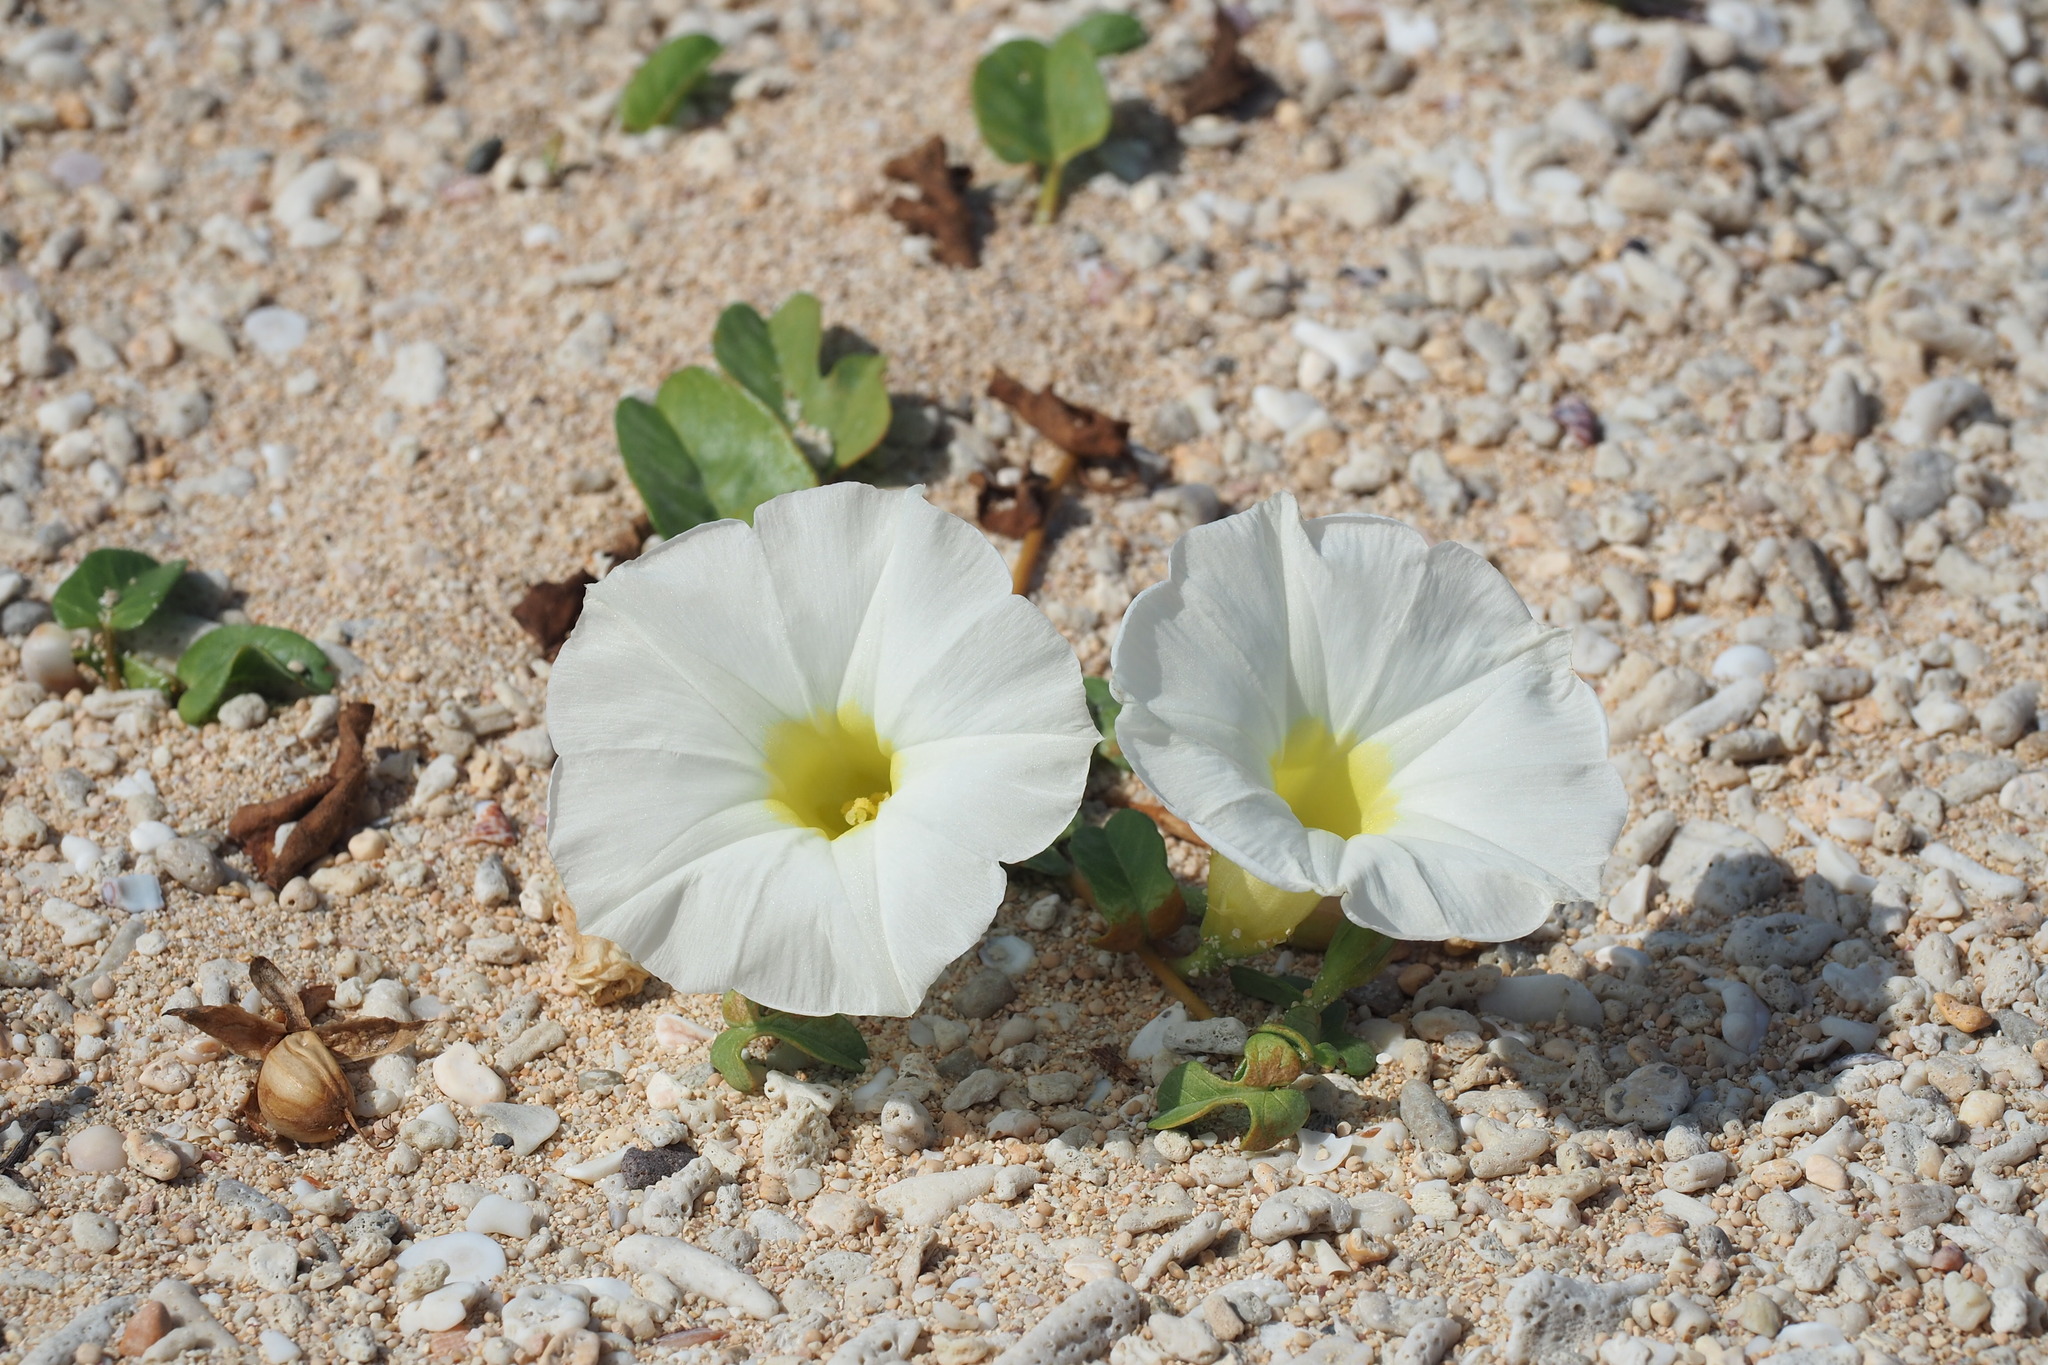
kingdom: Plantae
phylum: Tracheophyta
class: Magnoliopsida
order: Solanales
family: Convolvulaceae
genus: Ipomoea
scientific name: Ipomoea imperati
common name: Fiddle-leaf morning-glory
